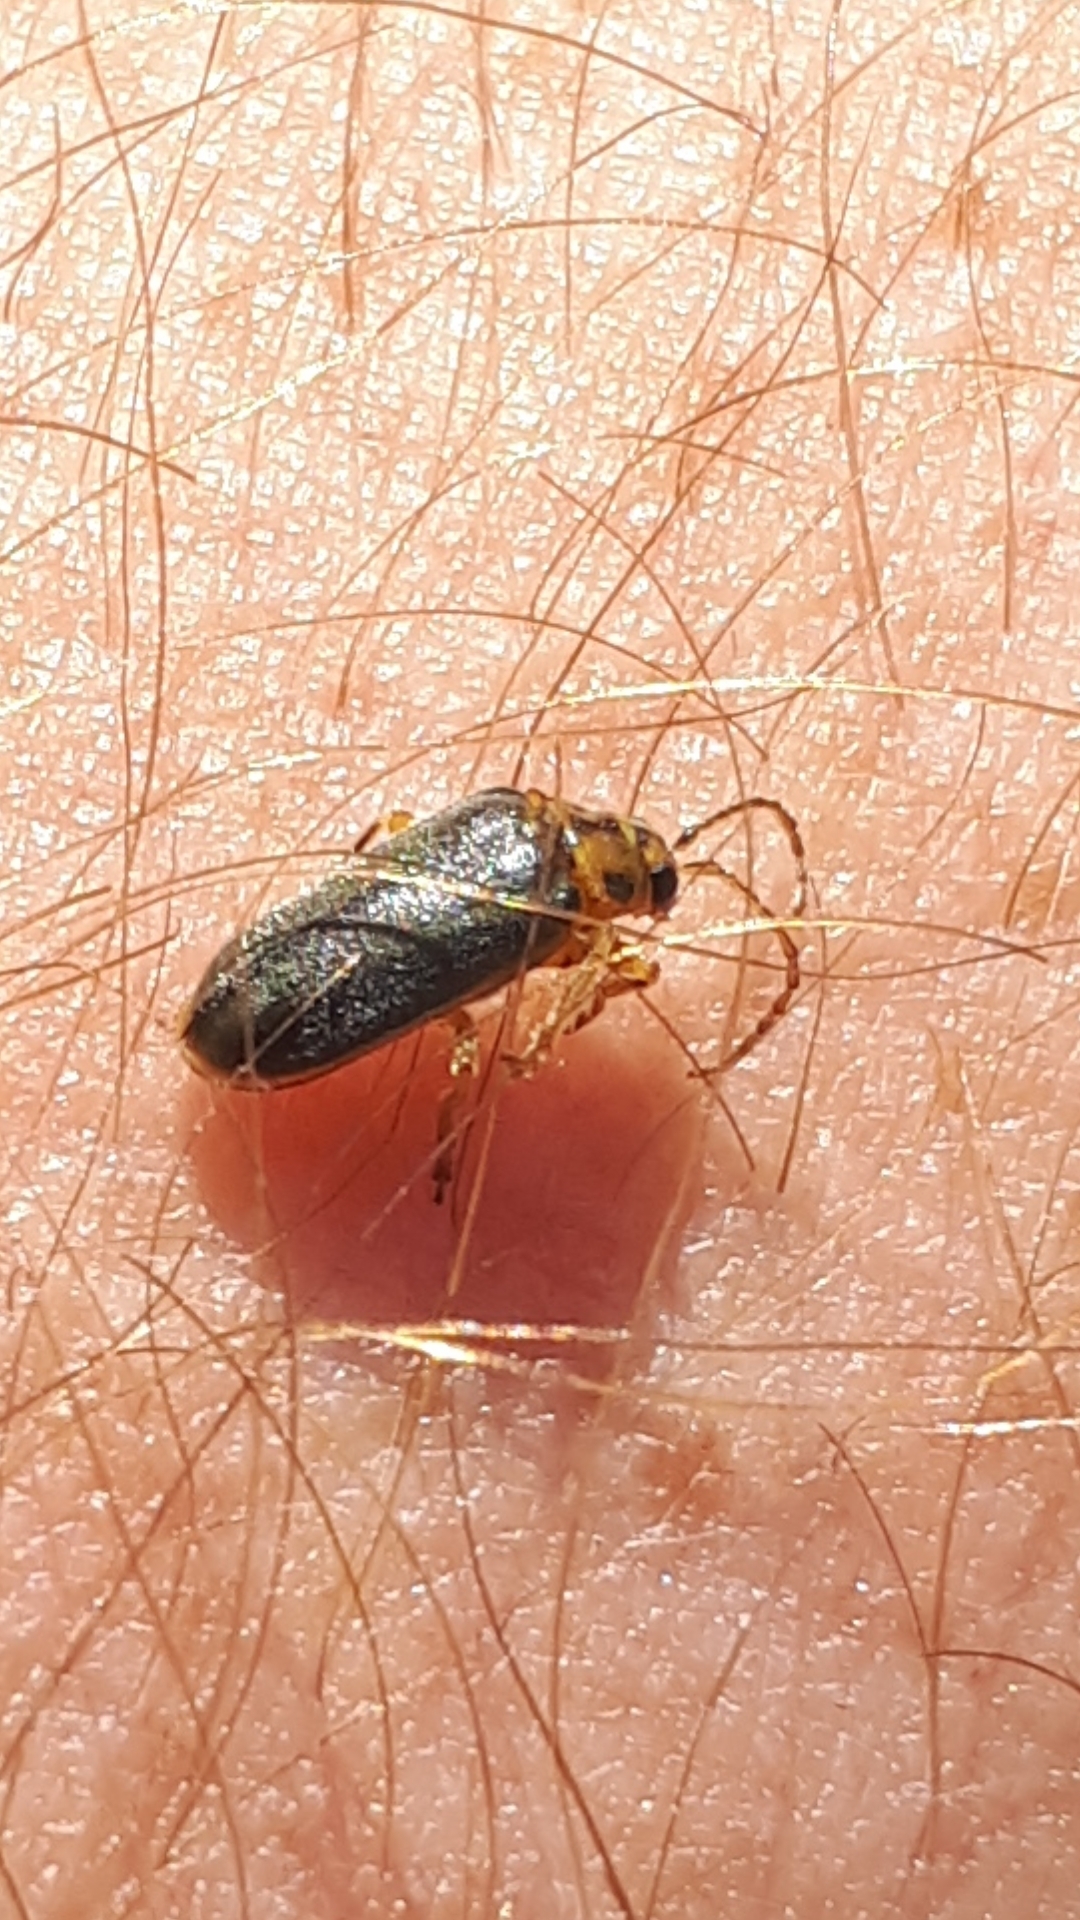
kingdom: Animalia
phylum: Arthropoda
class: Insecta
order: Coleoptera
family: Chrysomelidae
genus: Xanthogaleruca
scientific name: Xanthogaleruca luteola
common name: Elm leaf beetle
